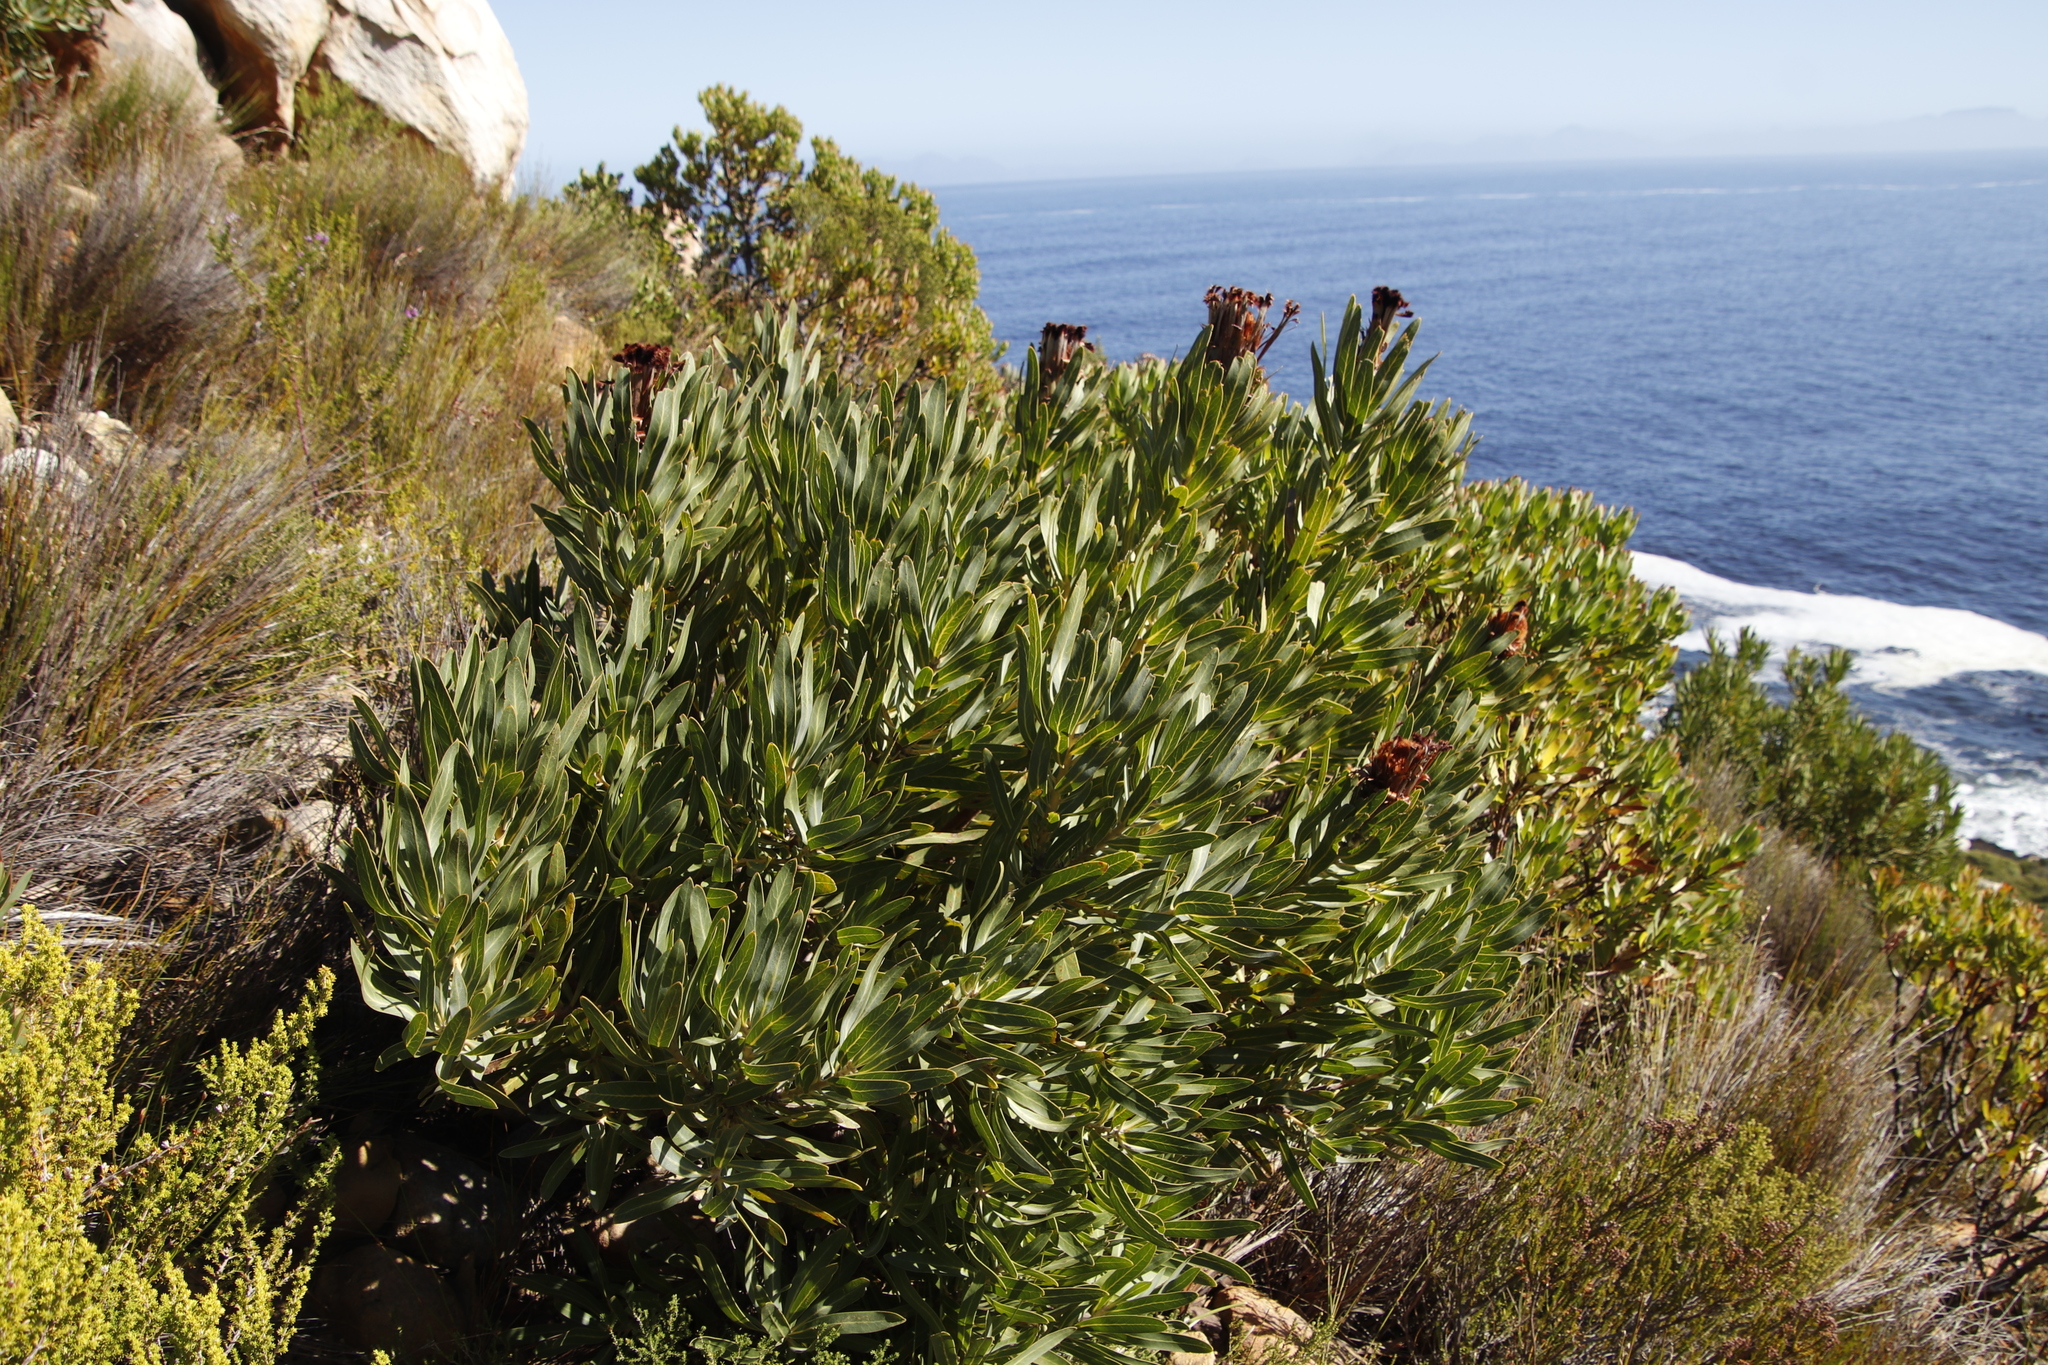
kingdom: Plantae
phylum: Tracheophyta
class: Magnoliopsida
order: Proteales
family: Proteaceae
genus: Protea
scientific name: Protea laurifolia
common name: Grey-leaf sugarbsh
